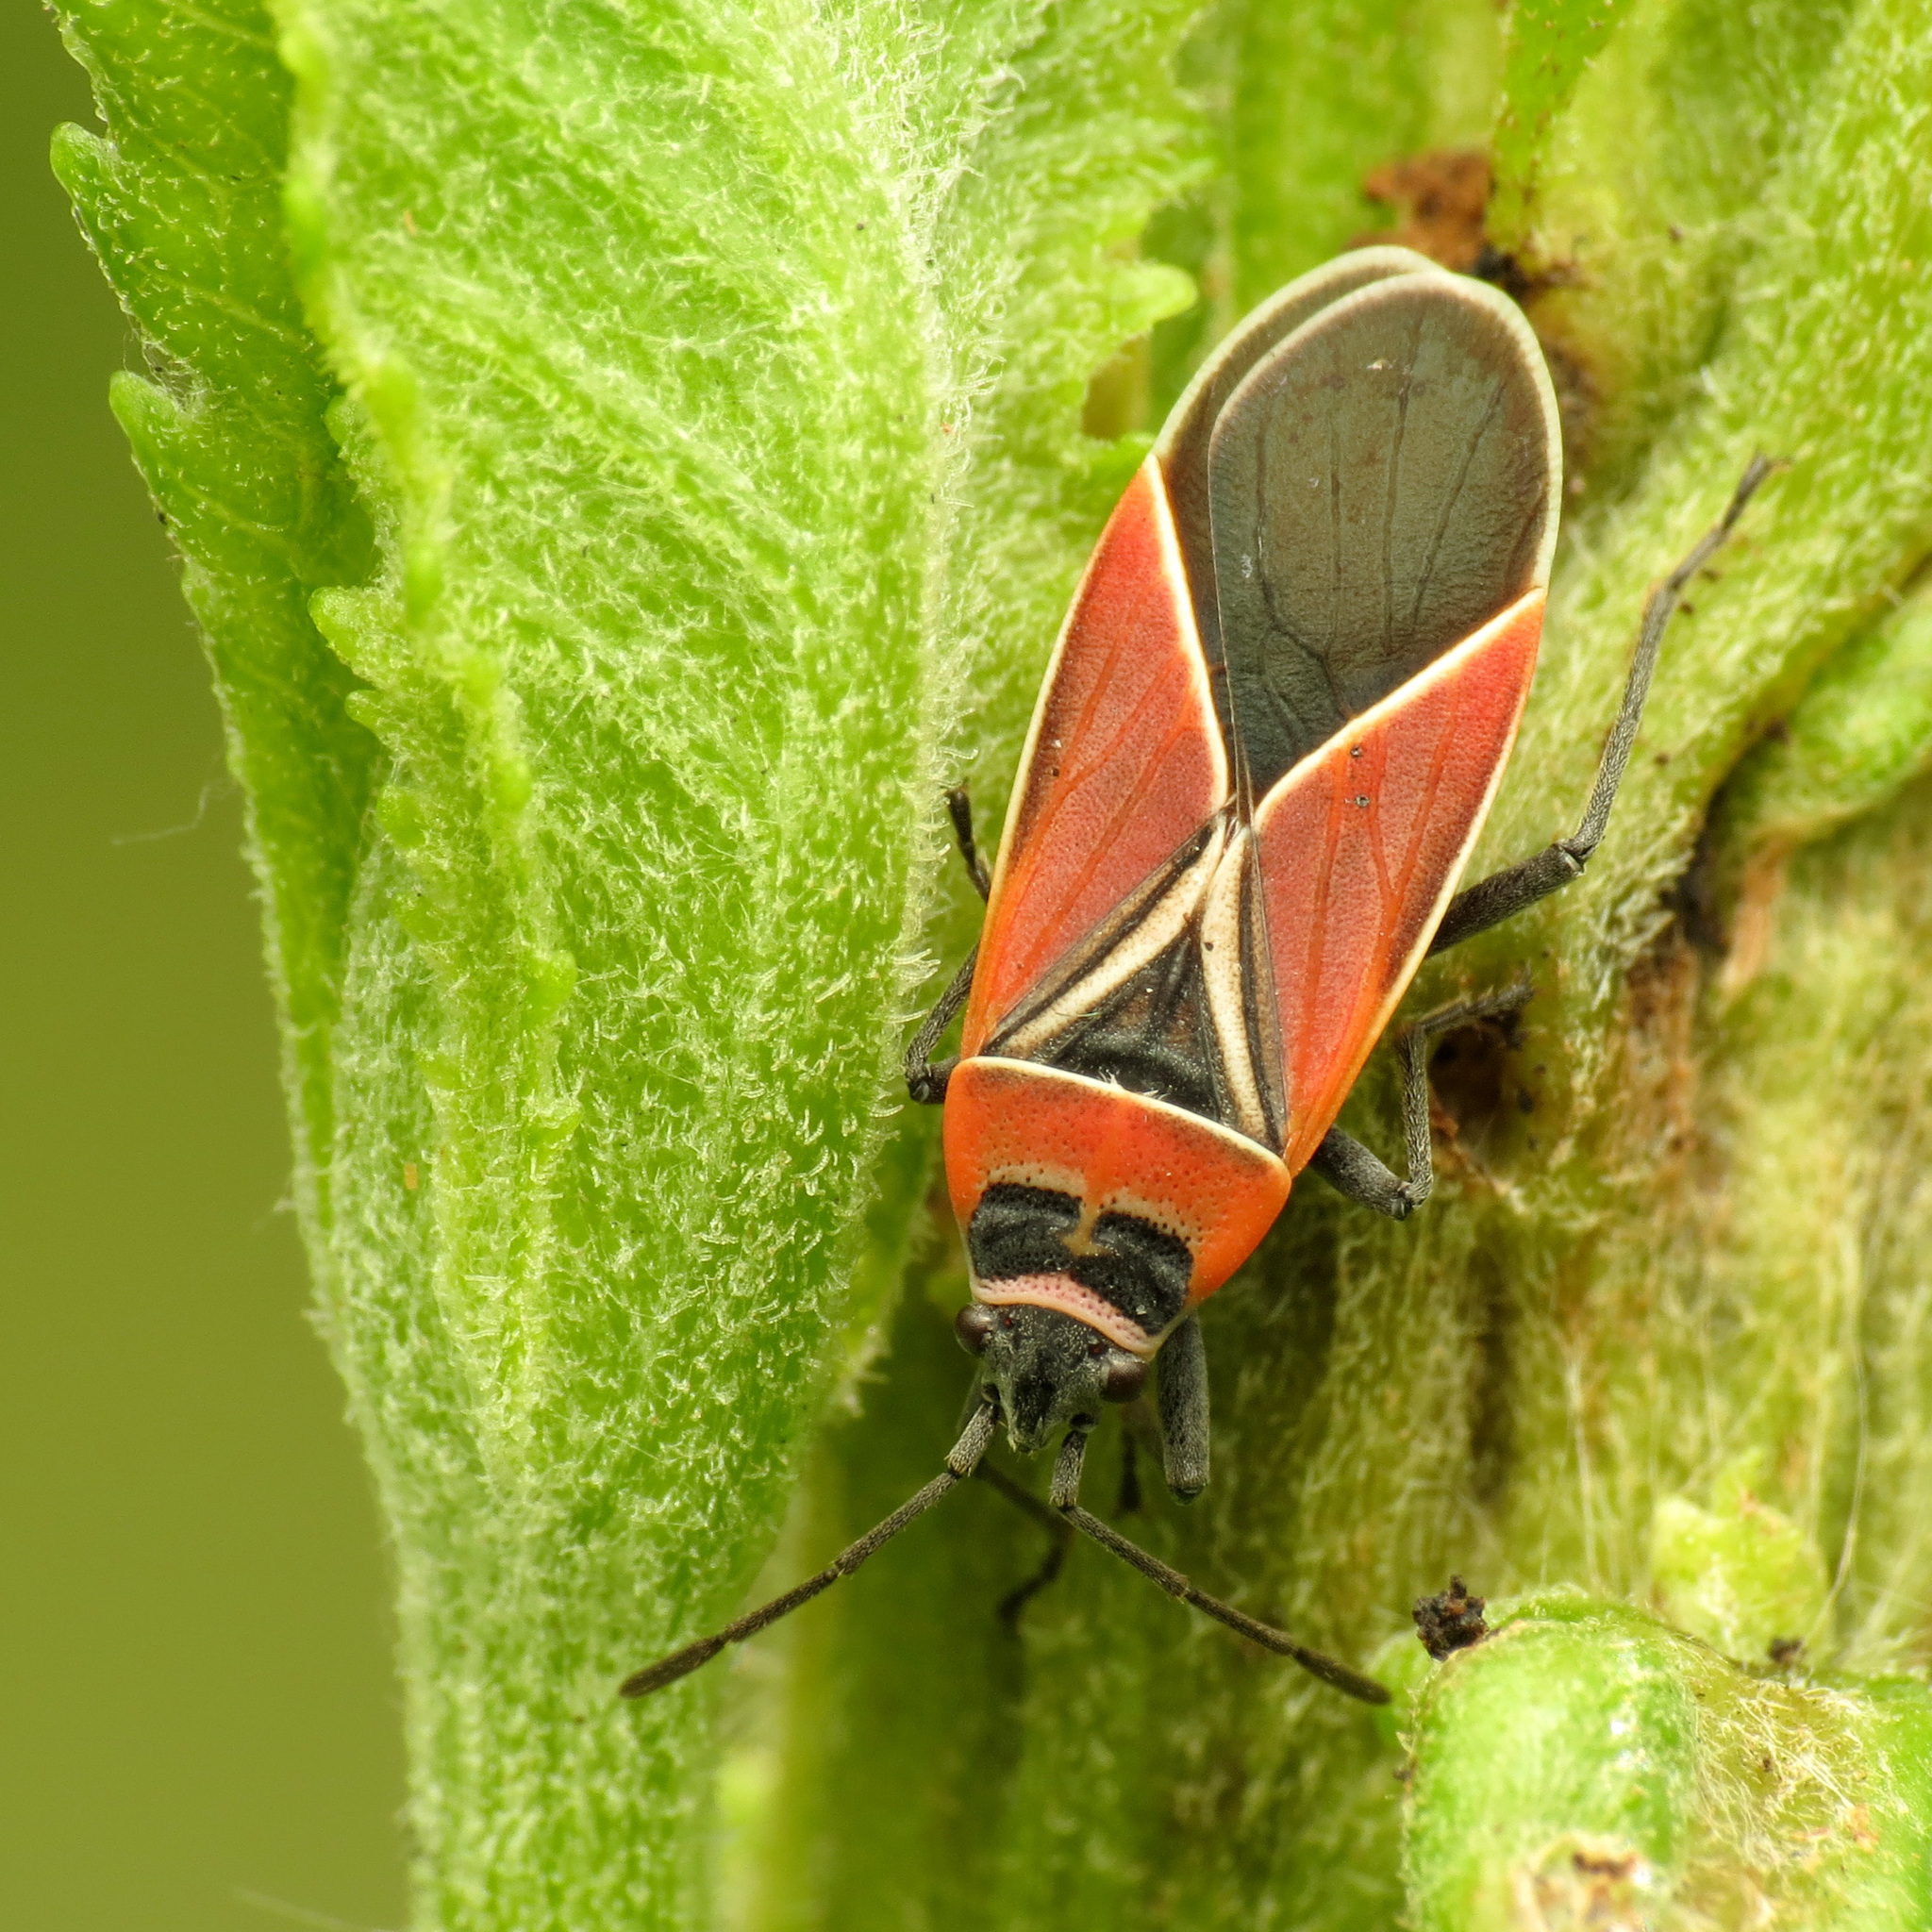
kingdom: Animalia
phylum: Arthropoda
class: Insecta
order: Hemiptera
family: Lygaeidae
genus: Neacoryphus
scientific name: Neacoryphus bicrucis
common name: Lygaeid bug
